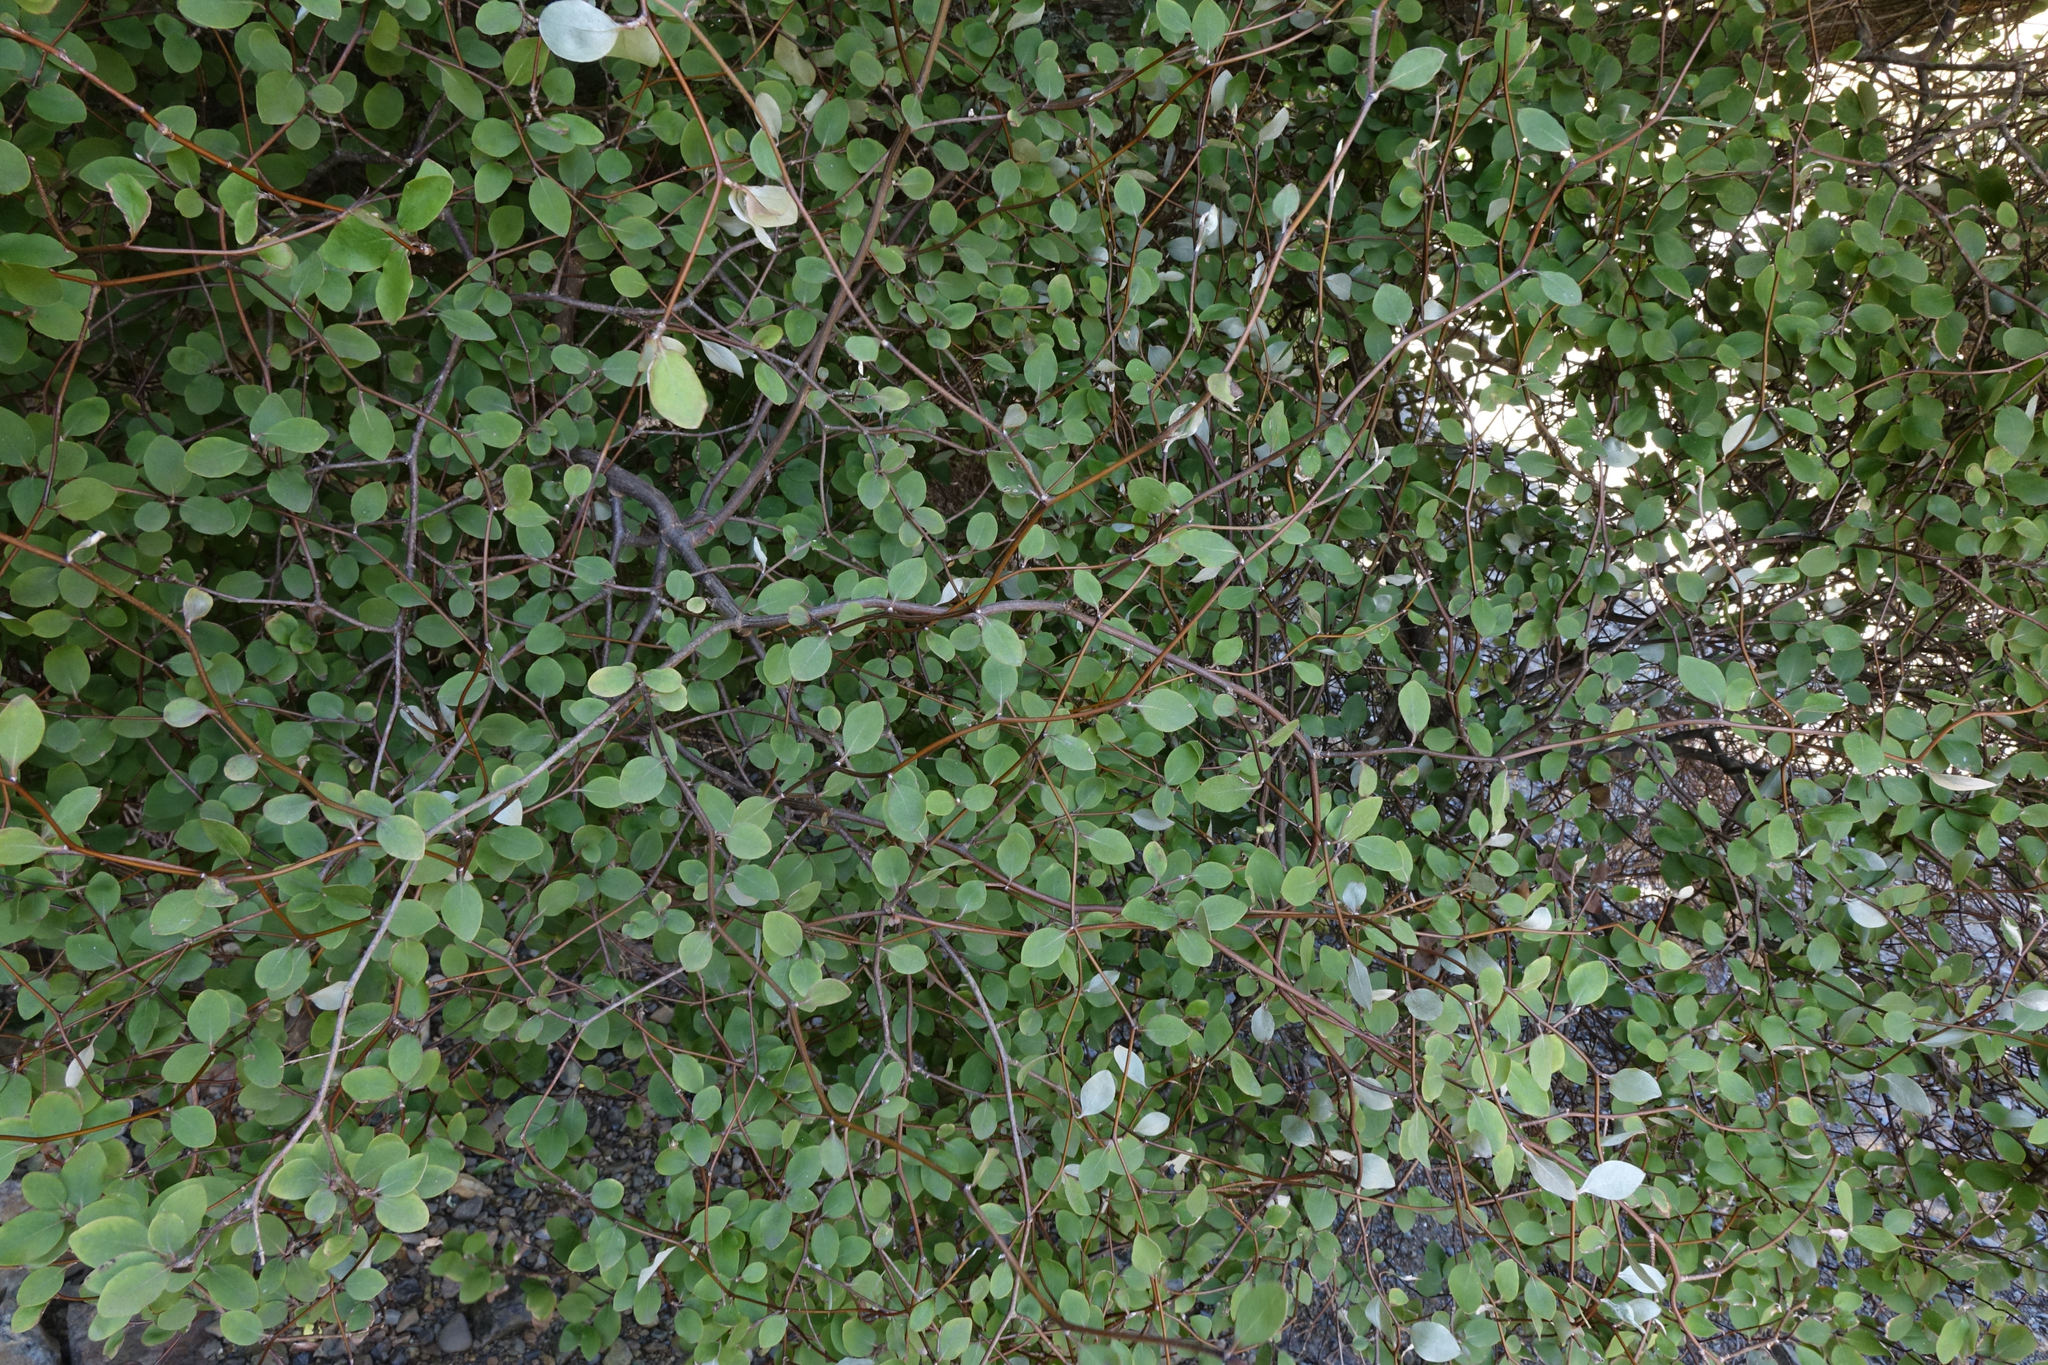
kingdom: Plantae
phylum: Tracheophyta
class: Magnoliopsida
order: Asterales
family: Asteraceae
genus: Olearia
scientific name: Olearia fragrantissima
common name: Fragrant tree daisy
